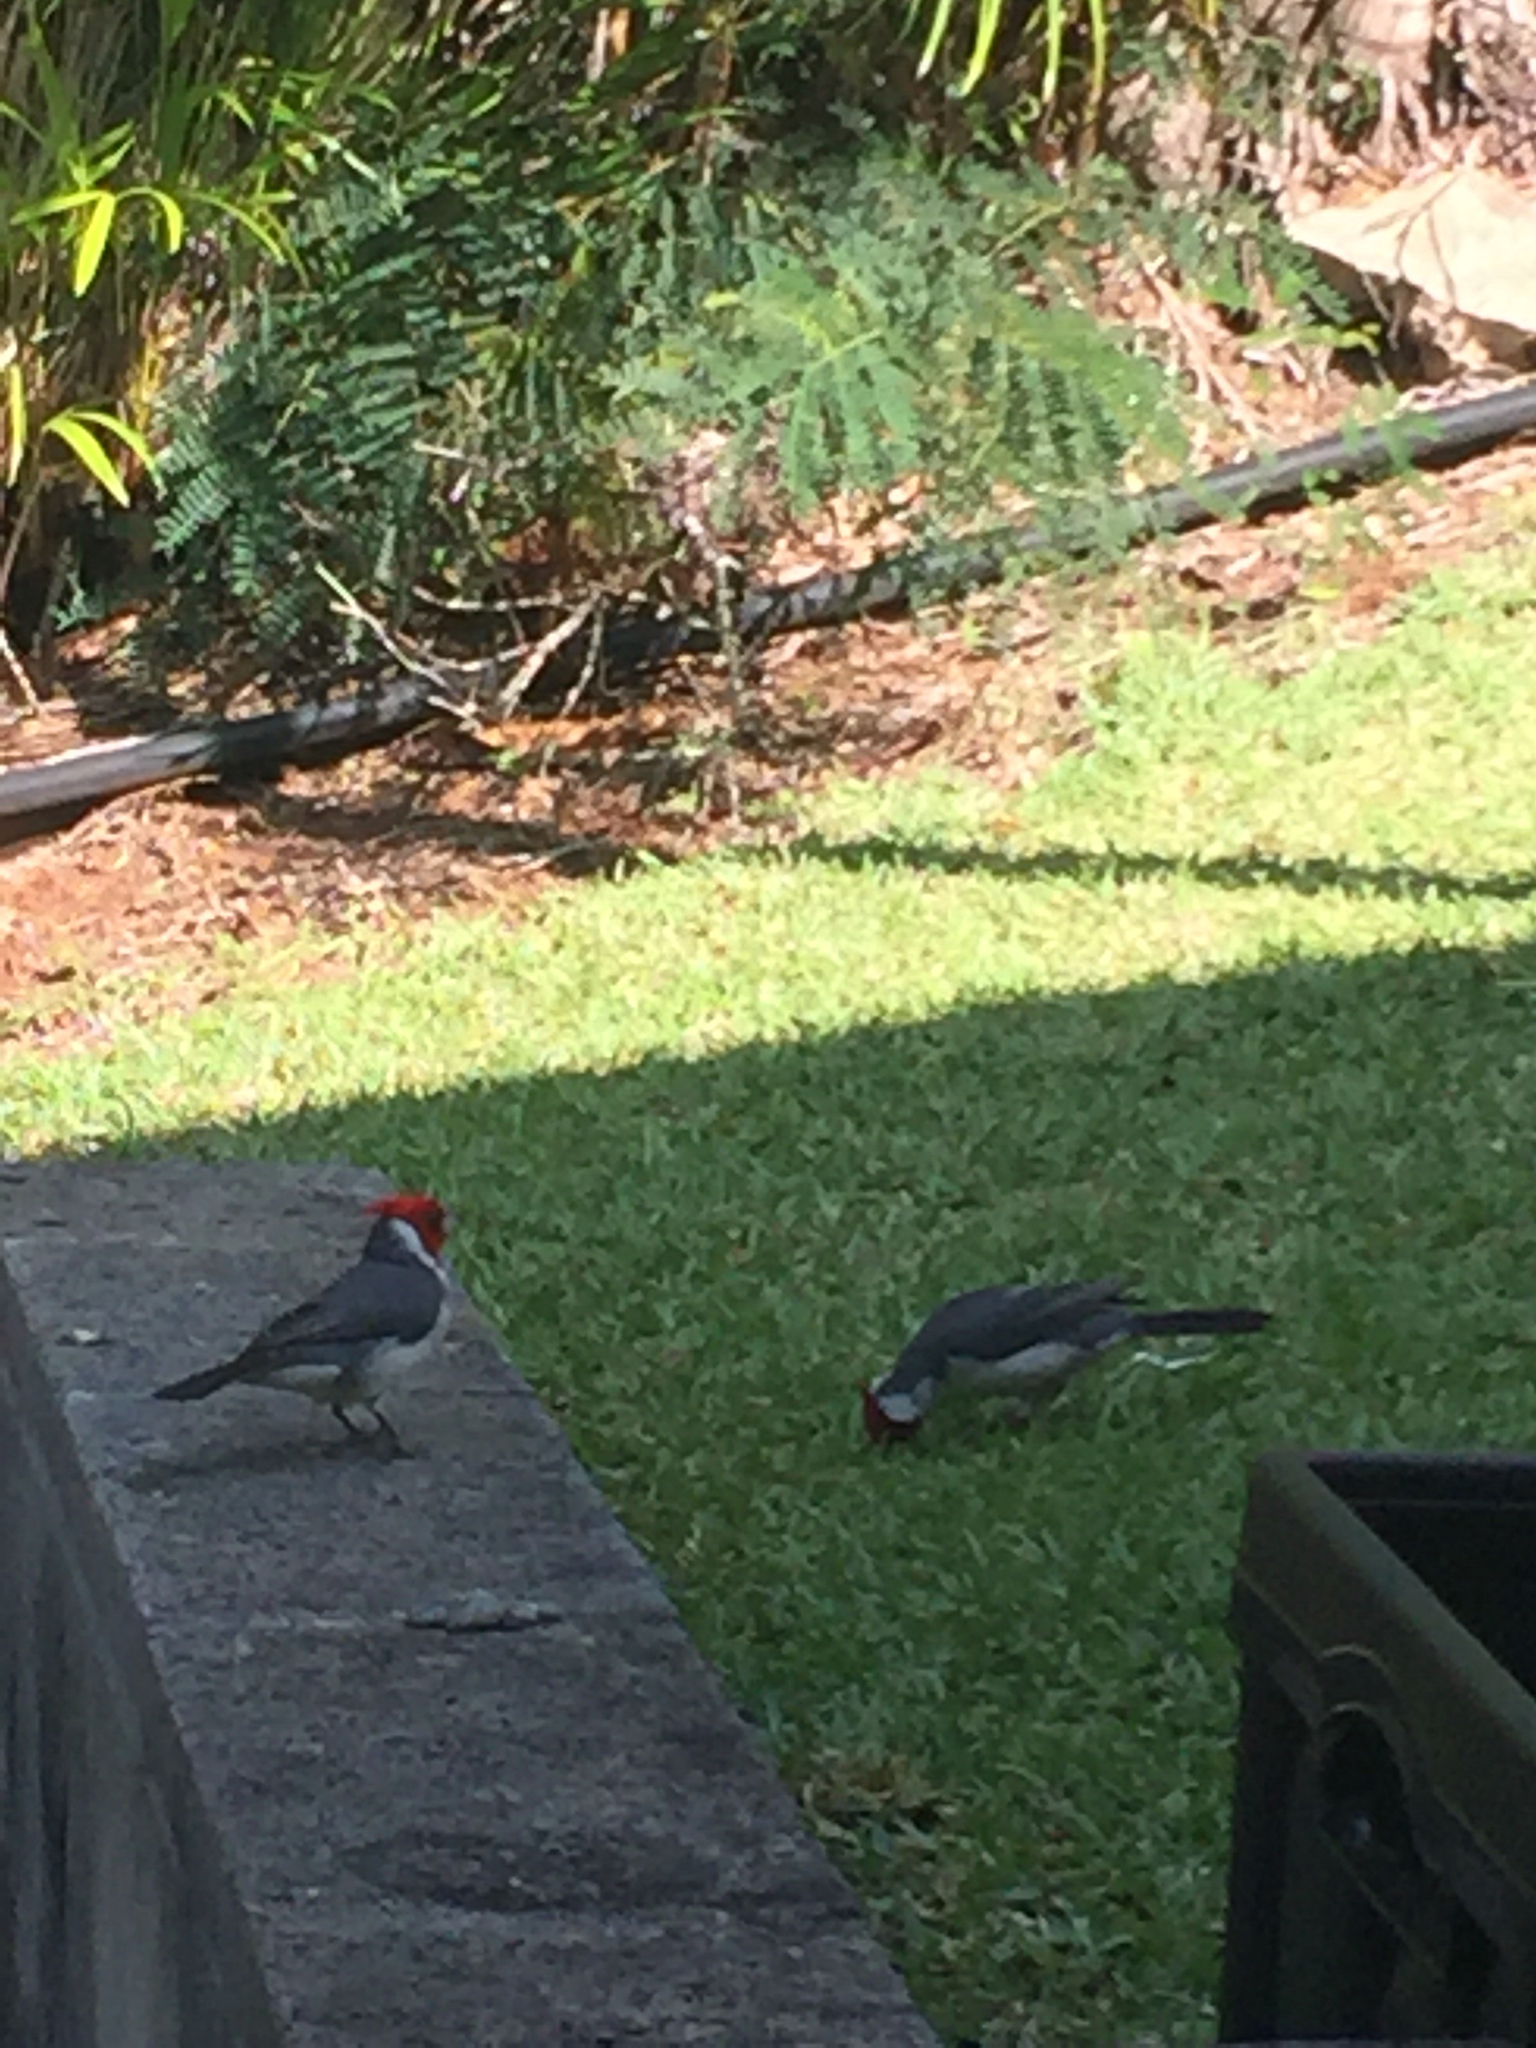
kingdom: Animalia
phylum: Chordata
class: Aves
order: Passeriformes
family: Thraupidae
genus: Paroaria
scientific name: Paroaria coronata
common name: Red-crested cardinal
